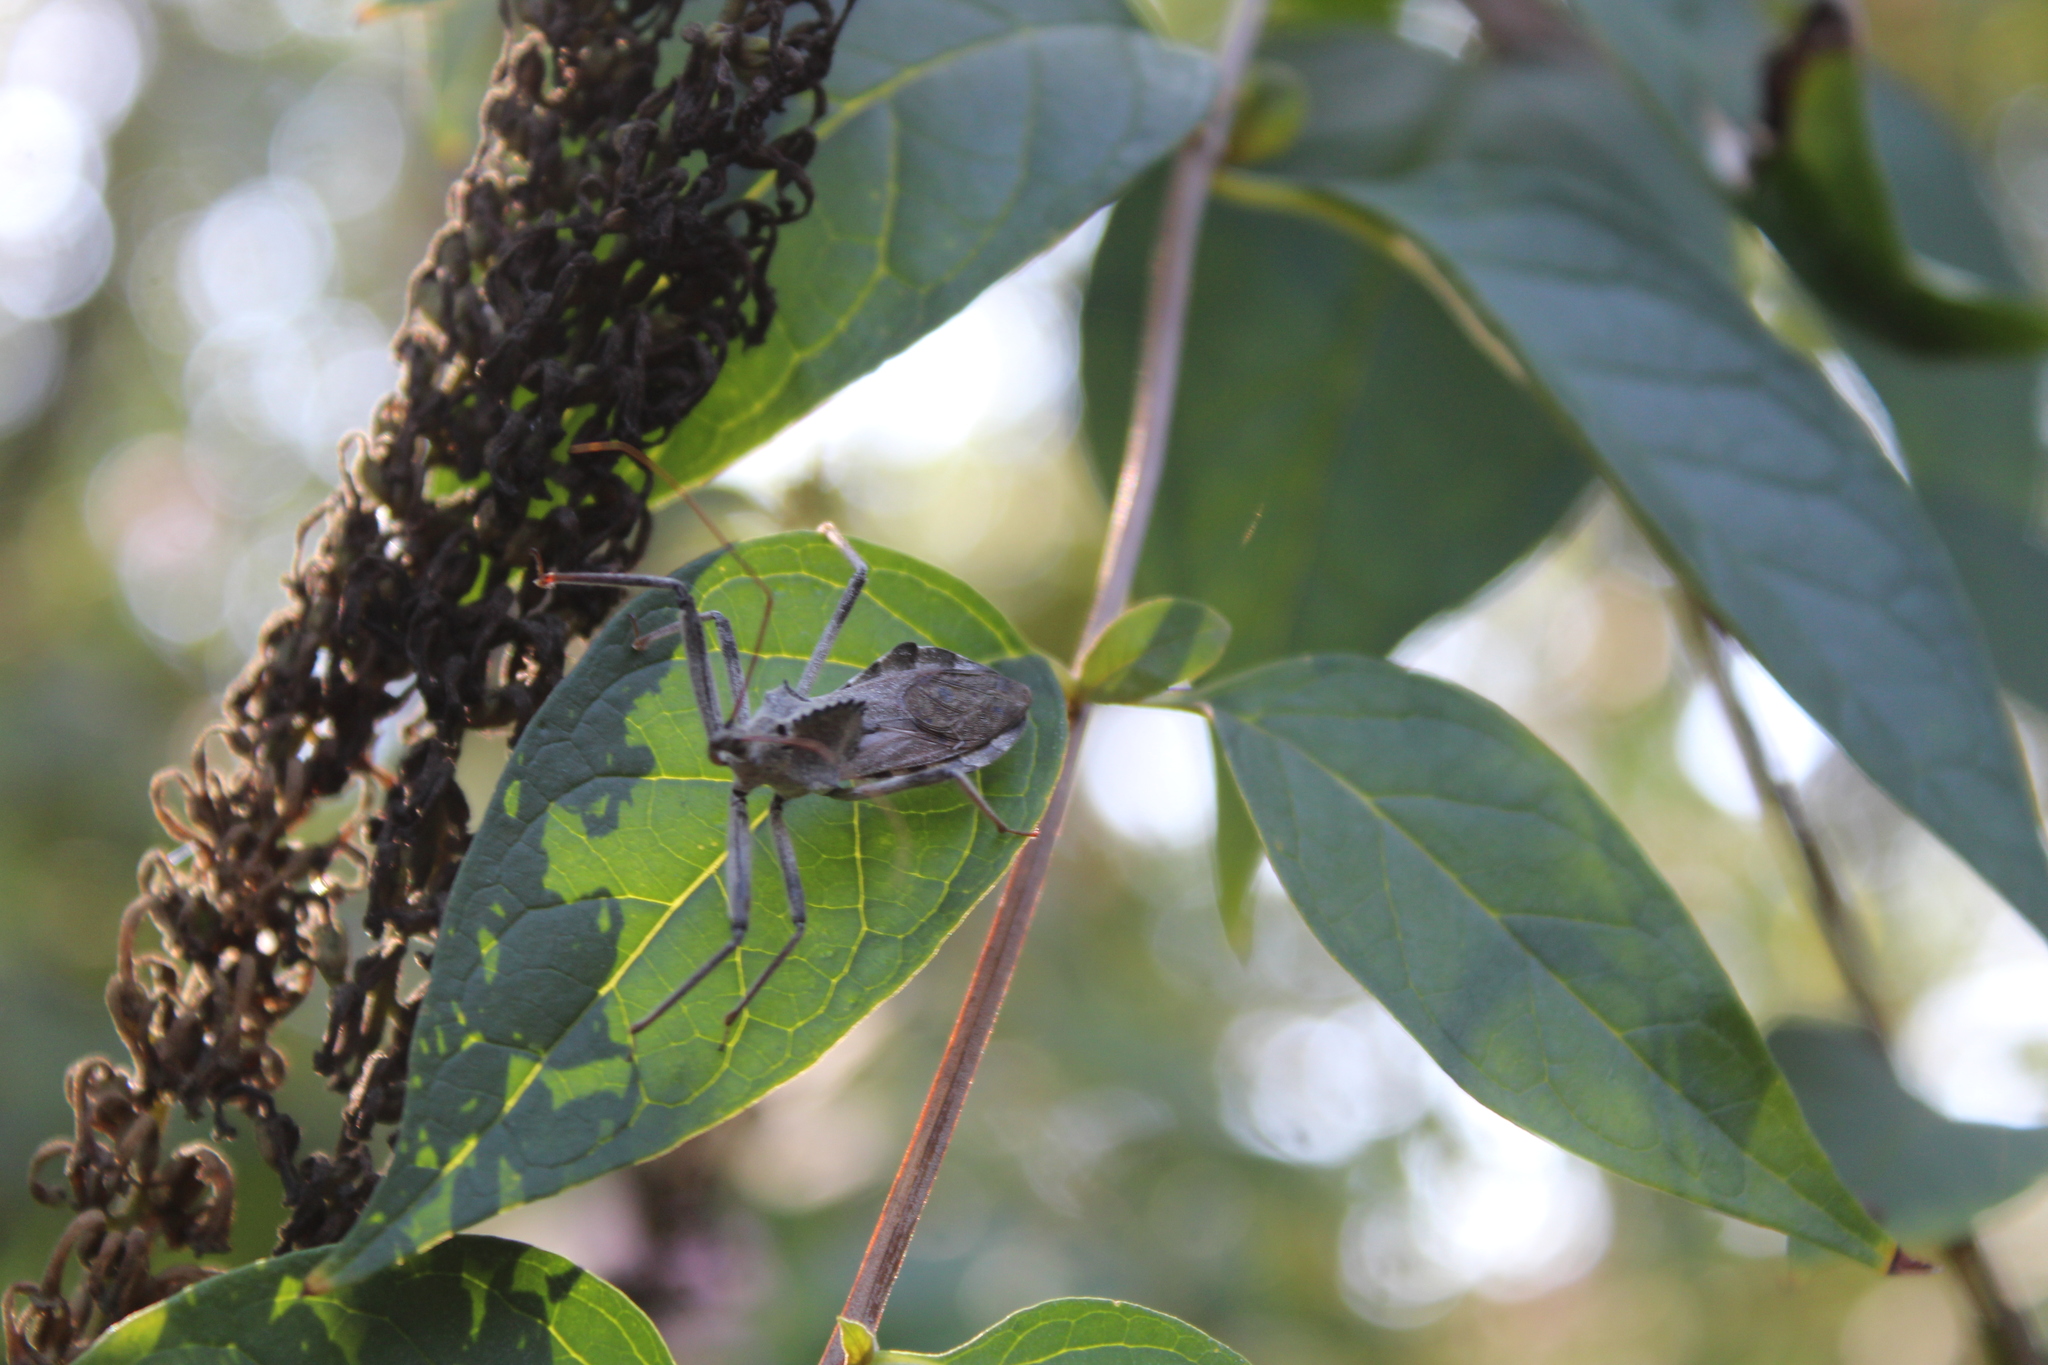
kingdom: Animalia
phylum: Arthropoda
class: Insecta
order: Hemiptera
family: Reduviidae
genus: Arilus
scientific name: Arilus cristatus
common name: North american wheel bug
